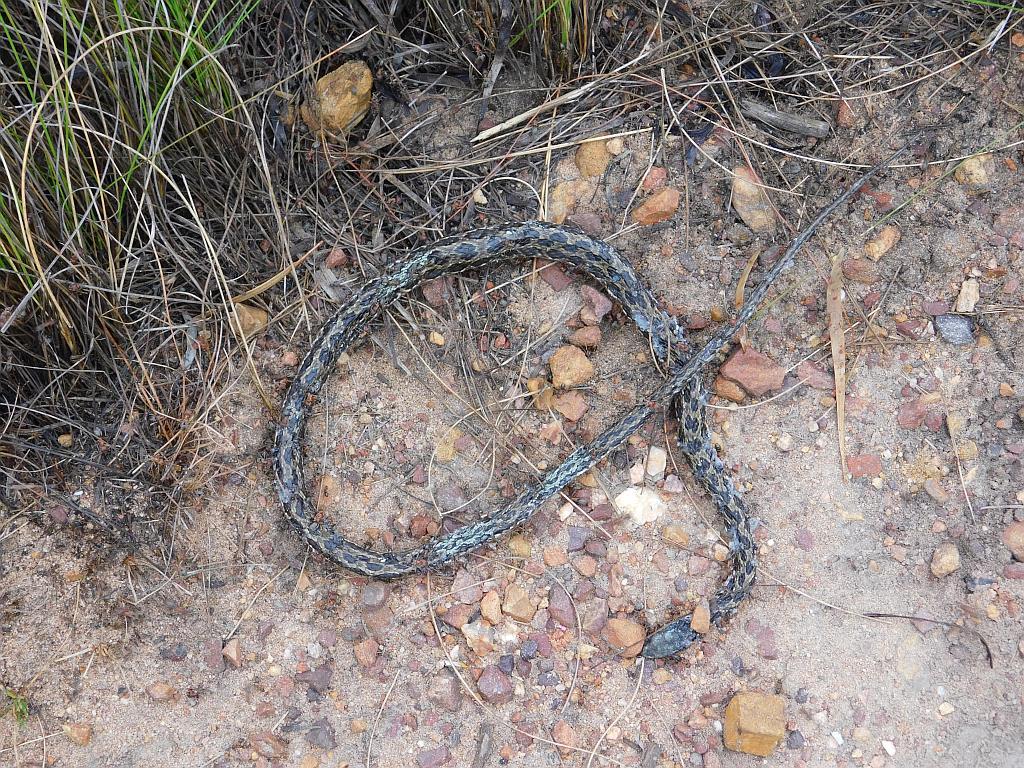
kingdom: Animalia
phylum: Chordata
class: Squamata
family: Psammophiidae
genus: Psammophylax
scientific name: Psammophylax rhombeatus
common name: Rhombic skaapsteker
